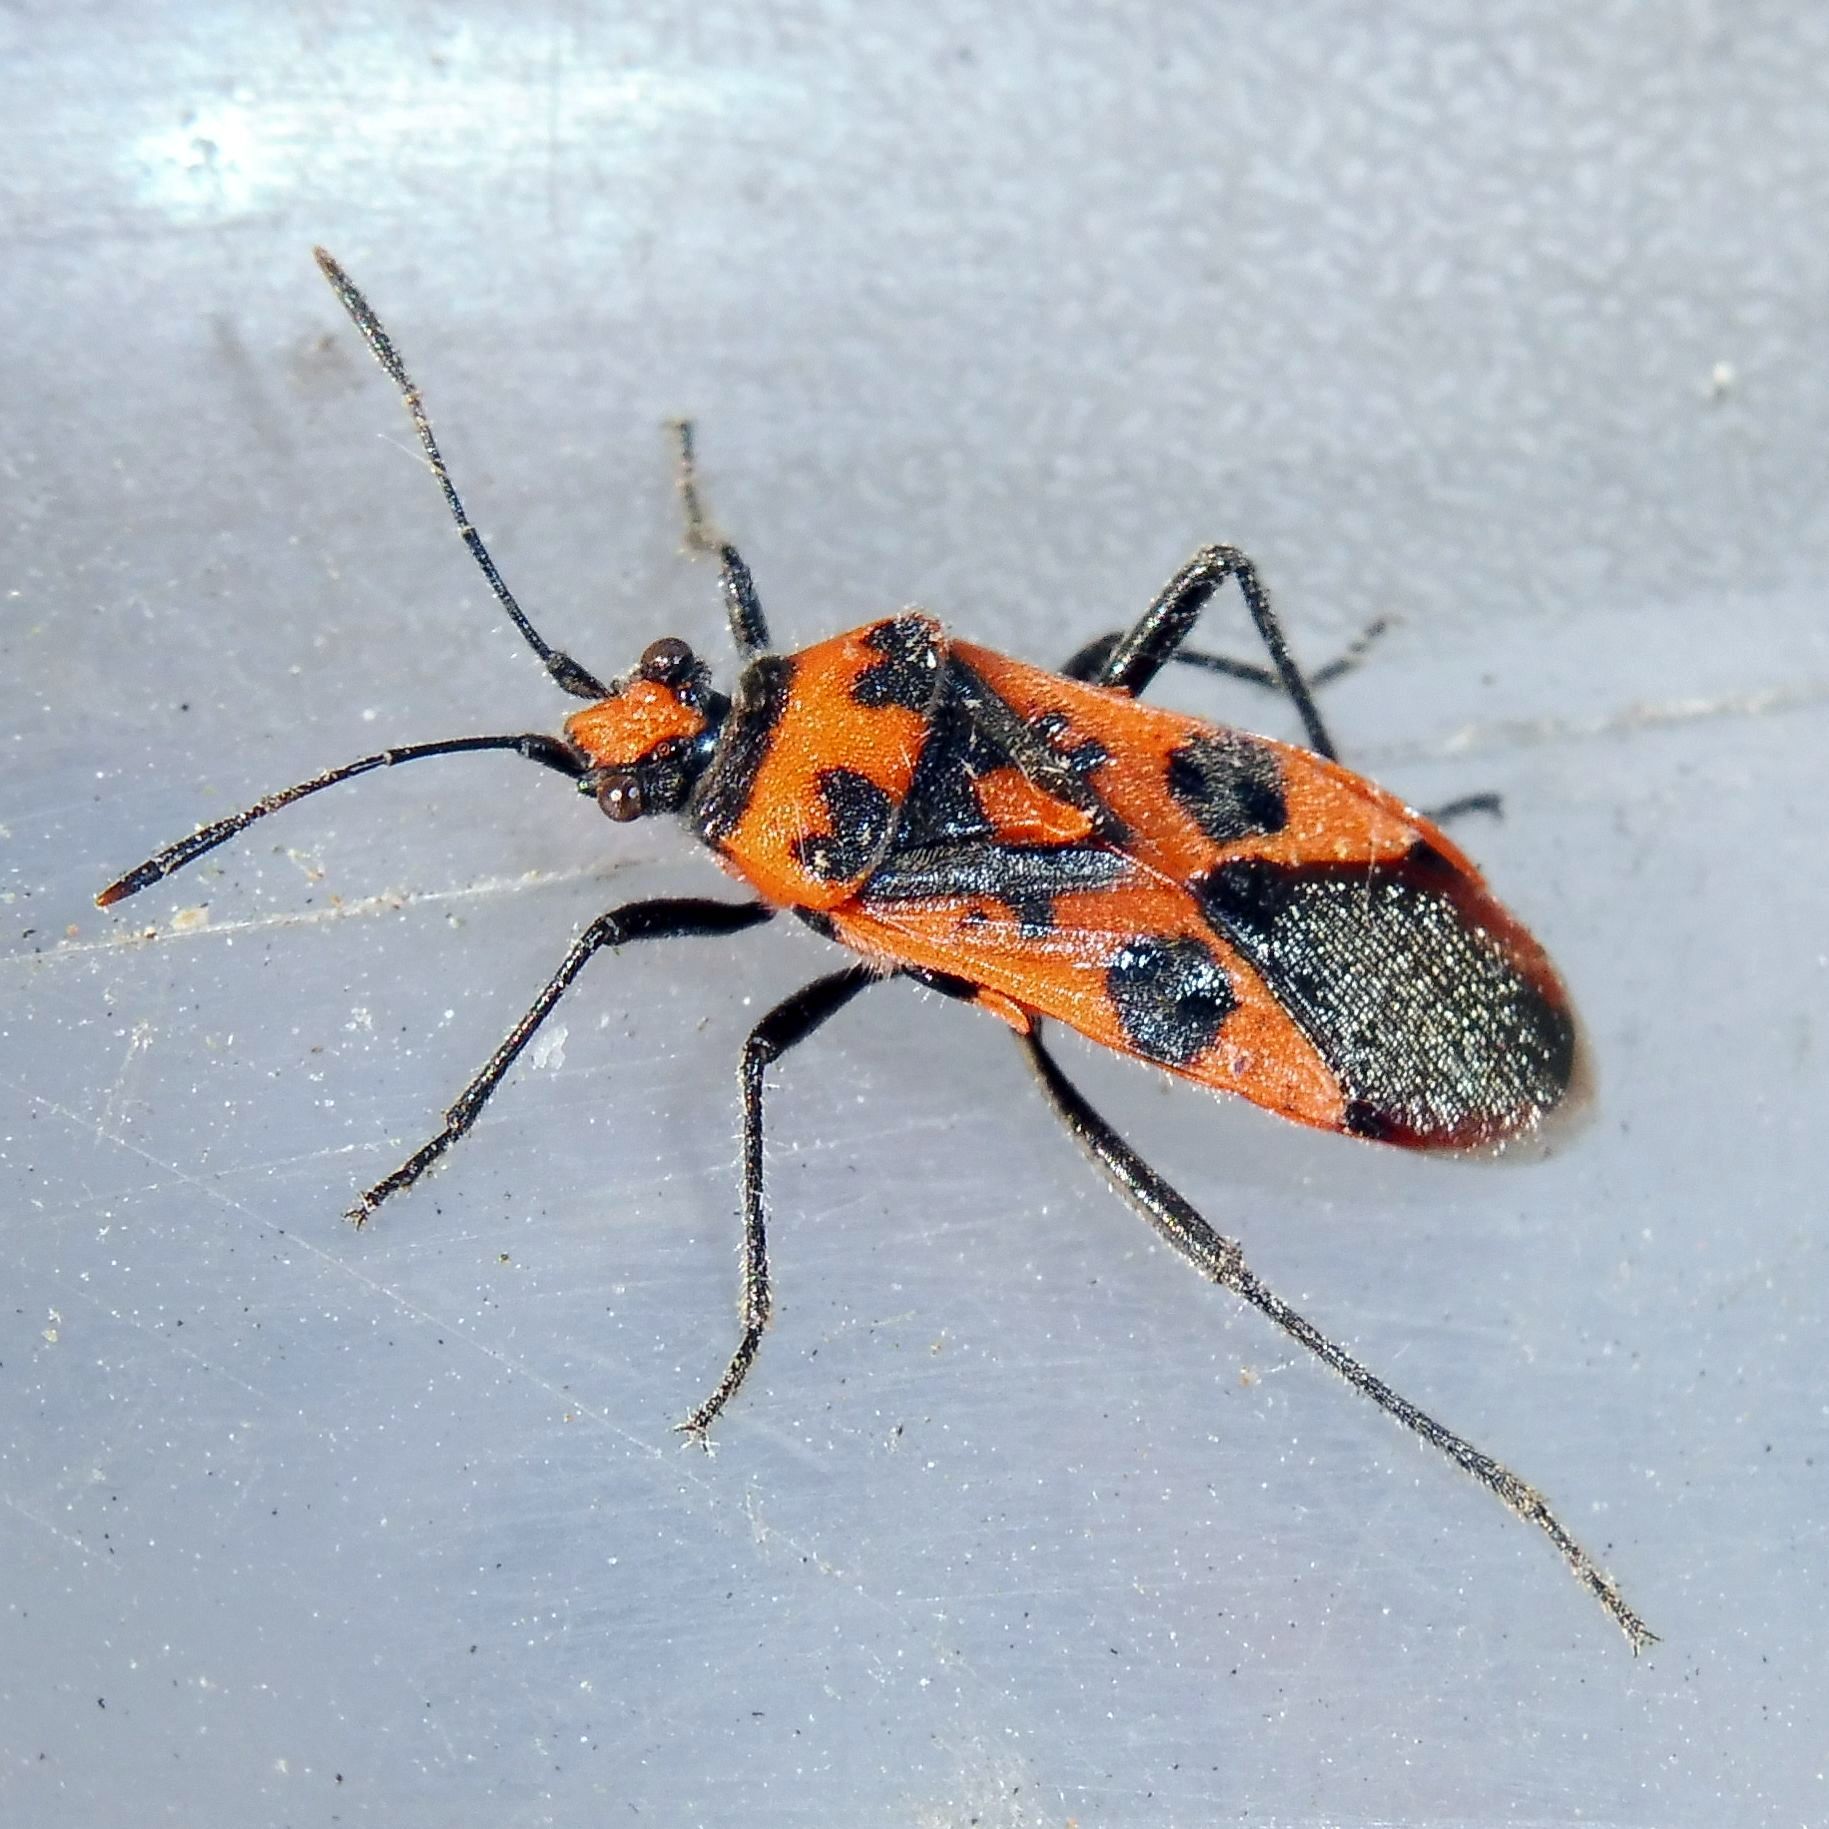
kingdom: Animalia
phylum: Arthropoda
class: Insecta
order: Hemiptera
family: Rhopalidae
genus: Corizus
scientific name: Corizus hyoscyami
